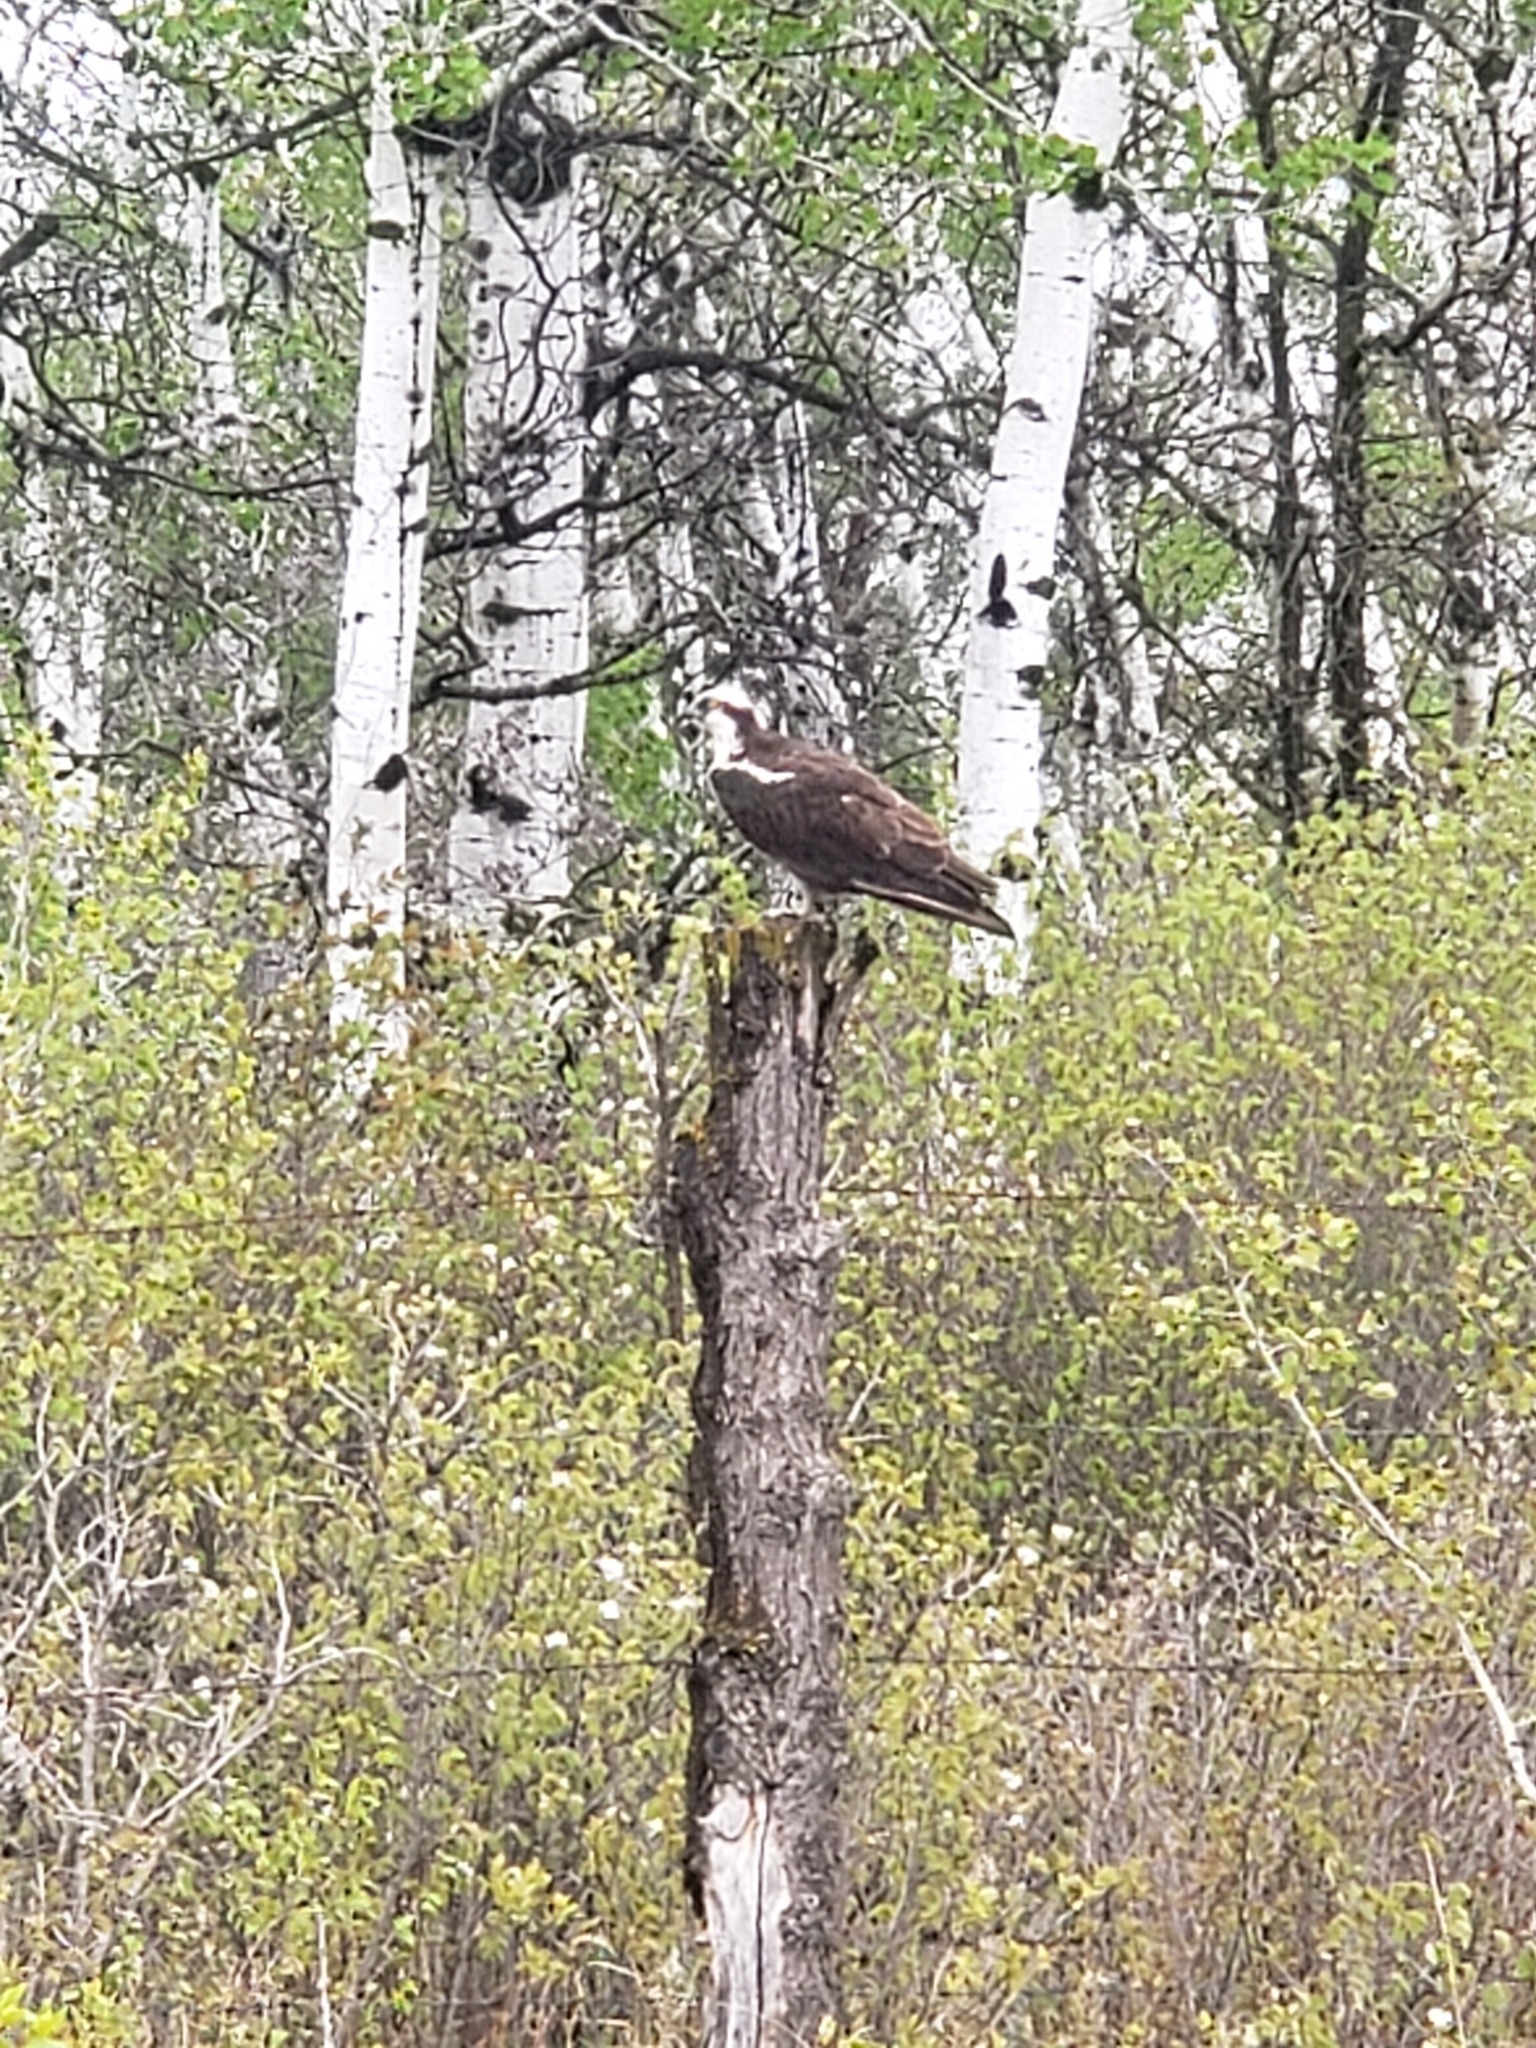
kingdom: Animalia
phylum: Chordata
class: Aves
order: Accipitriformes
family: Pandionidae
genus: Pandion
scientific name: Pandion haliaetus
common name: Osprey
